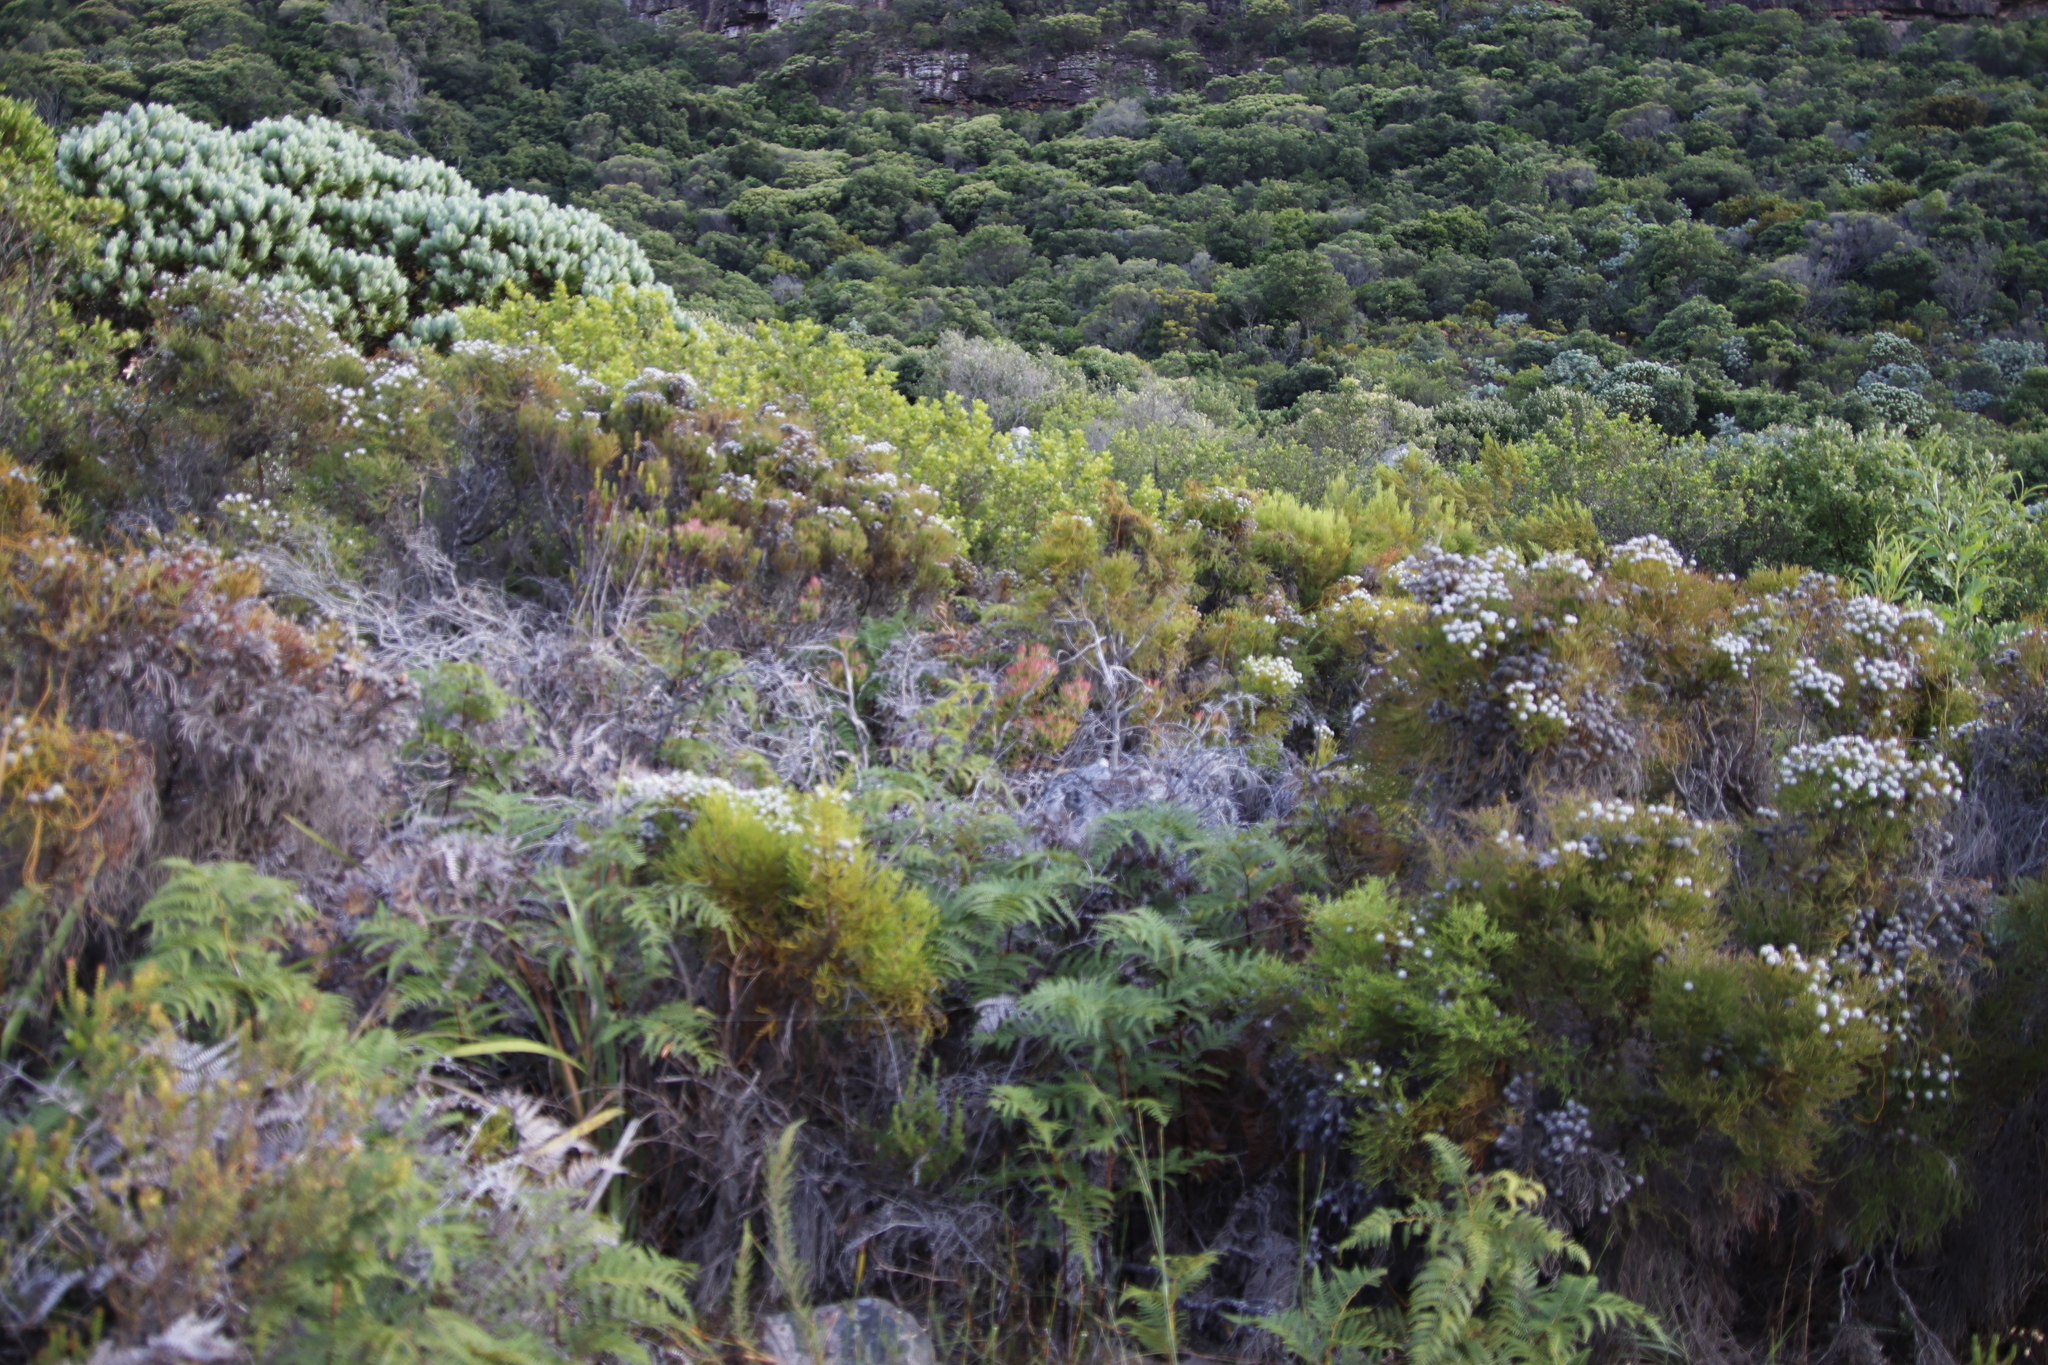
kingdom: Plantae
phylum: Tracheophyta
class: Polypodiopsida
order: Polypodiales
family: Dennstaedtiaceae
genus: Pteridium
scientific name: Pteridium aquilinum
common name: Bracken
